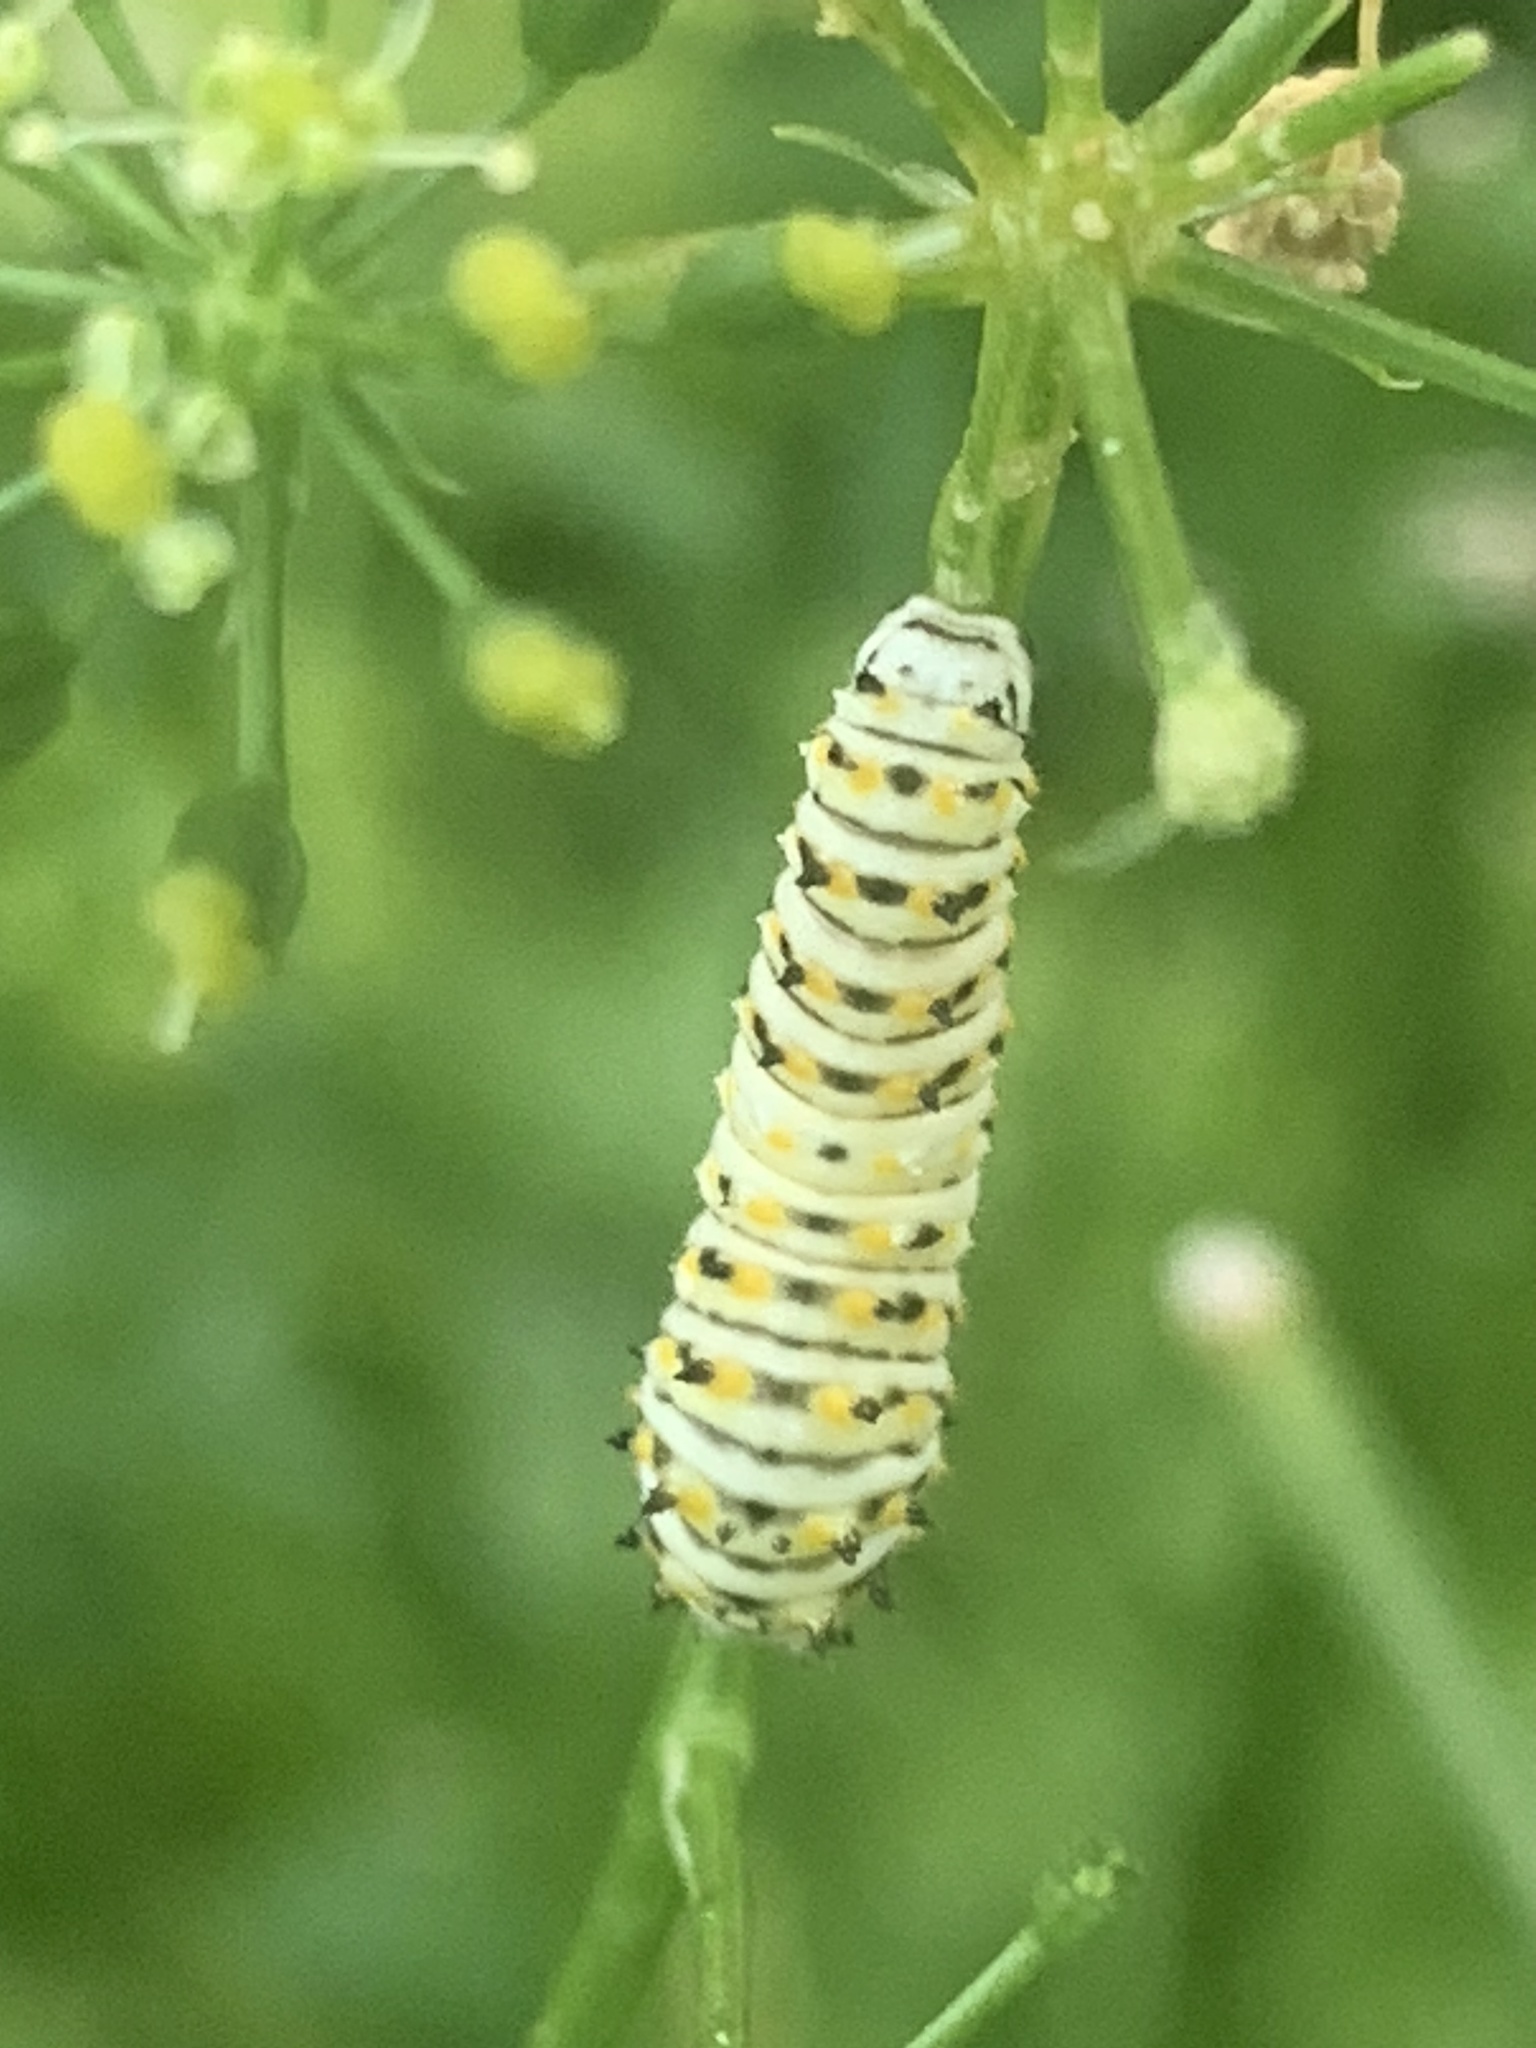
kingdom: Animalia
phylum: Arthropoda
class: Insecta
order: Lepidoptera
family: Papilionidae
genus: Papilio
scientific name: Papilio polyxenes
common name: Black swallowtail
